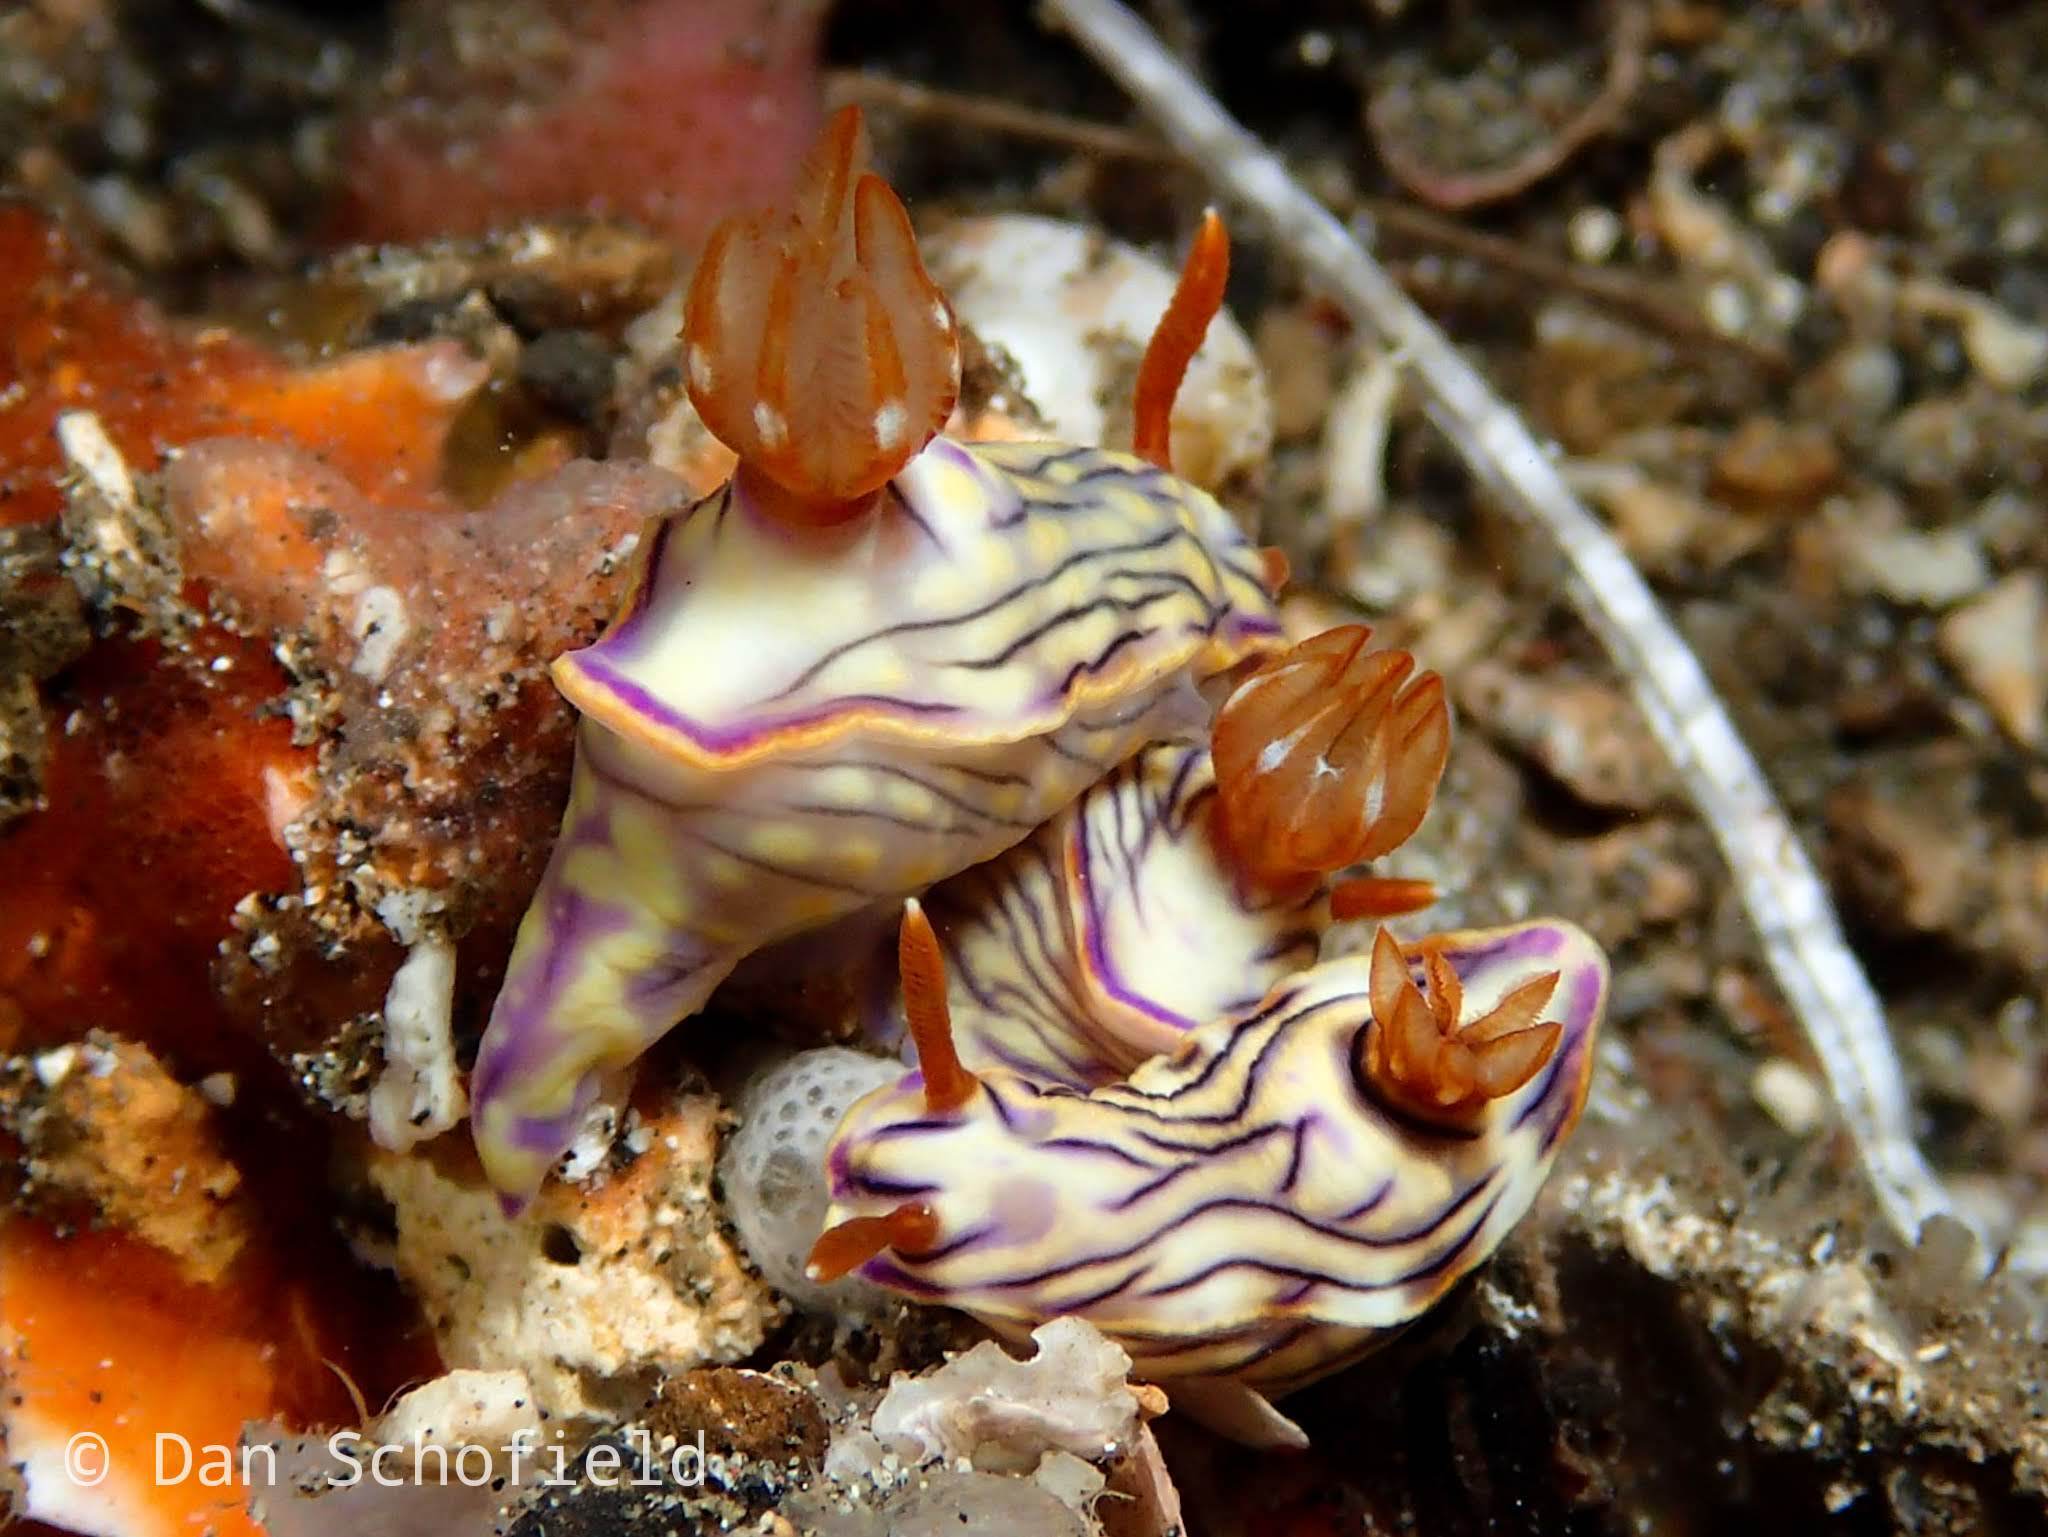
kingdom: Animalia
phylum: Mollusca
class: Gastropoda
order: Nudibranchia
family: Chromodorididae
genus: Hypselodoris
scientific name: Hypselodoris zephyra
